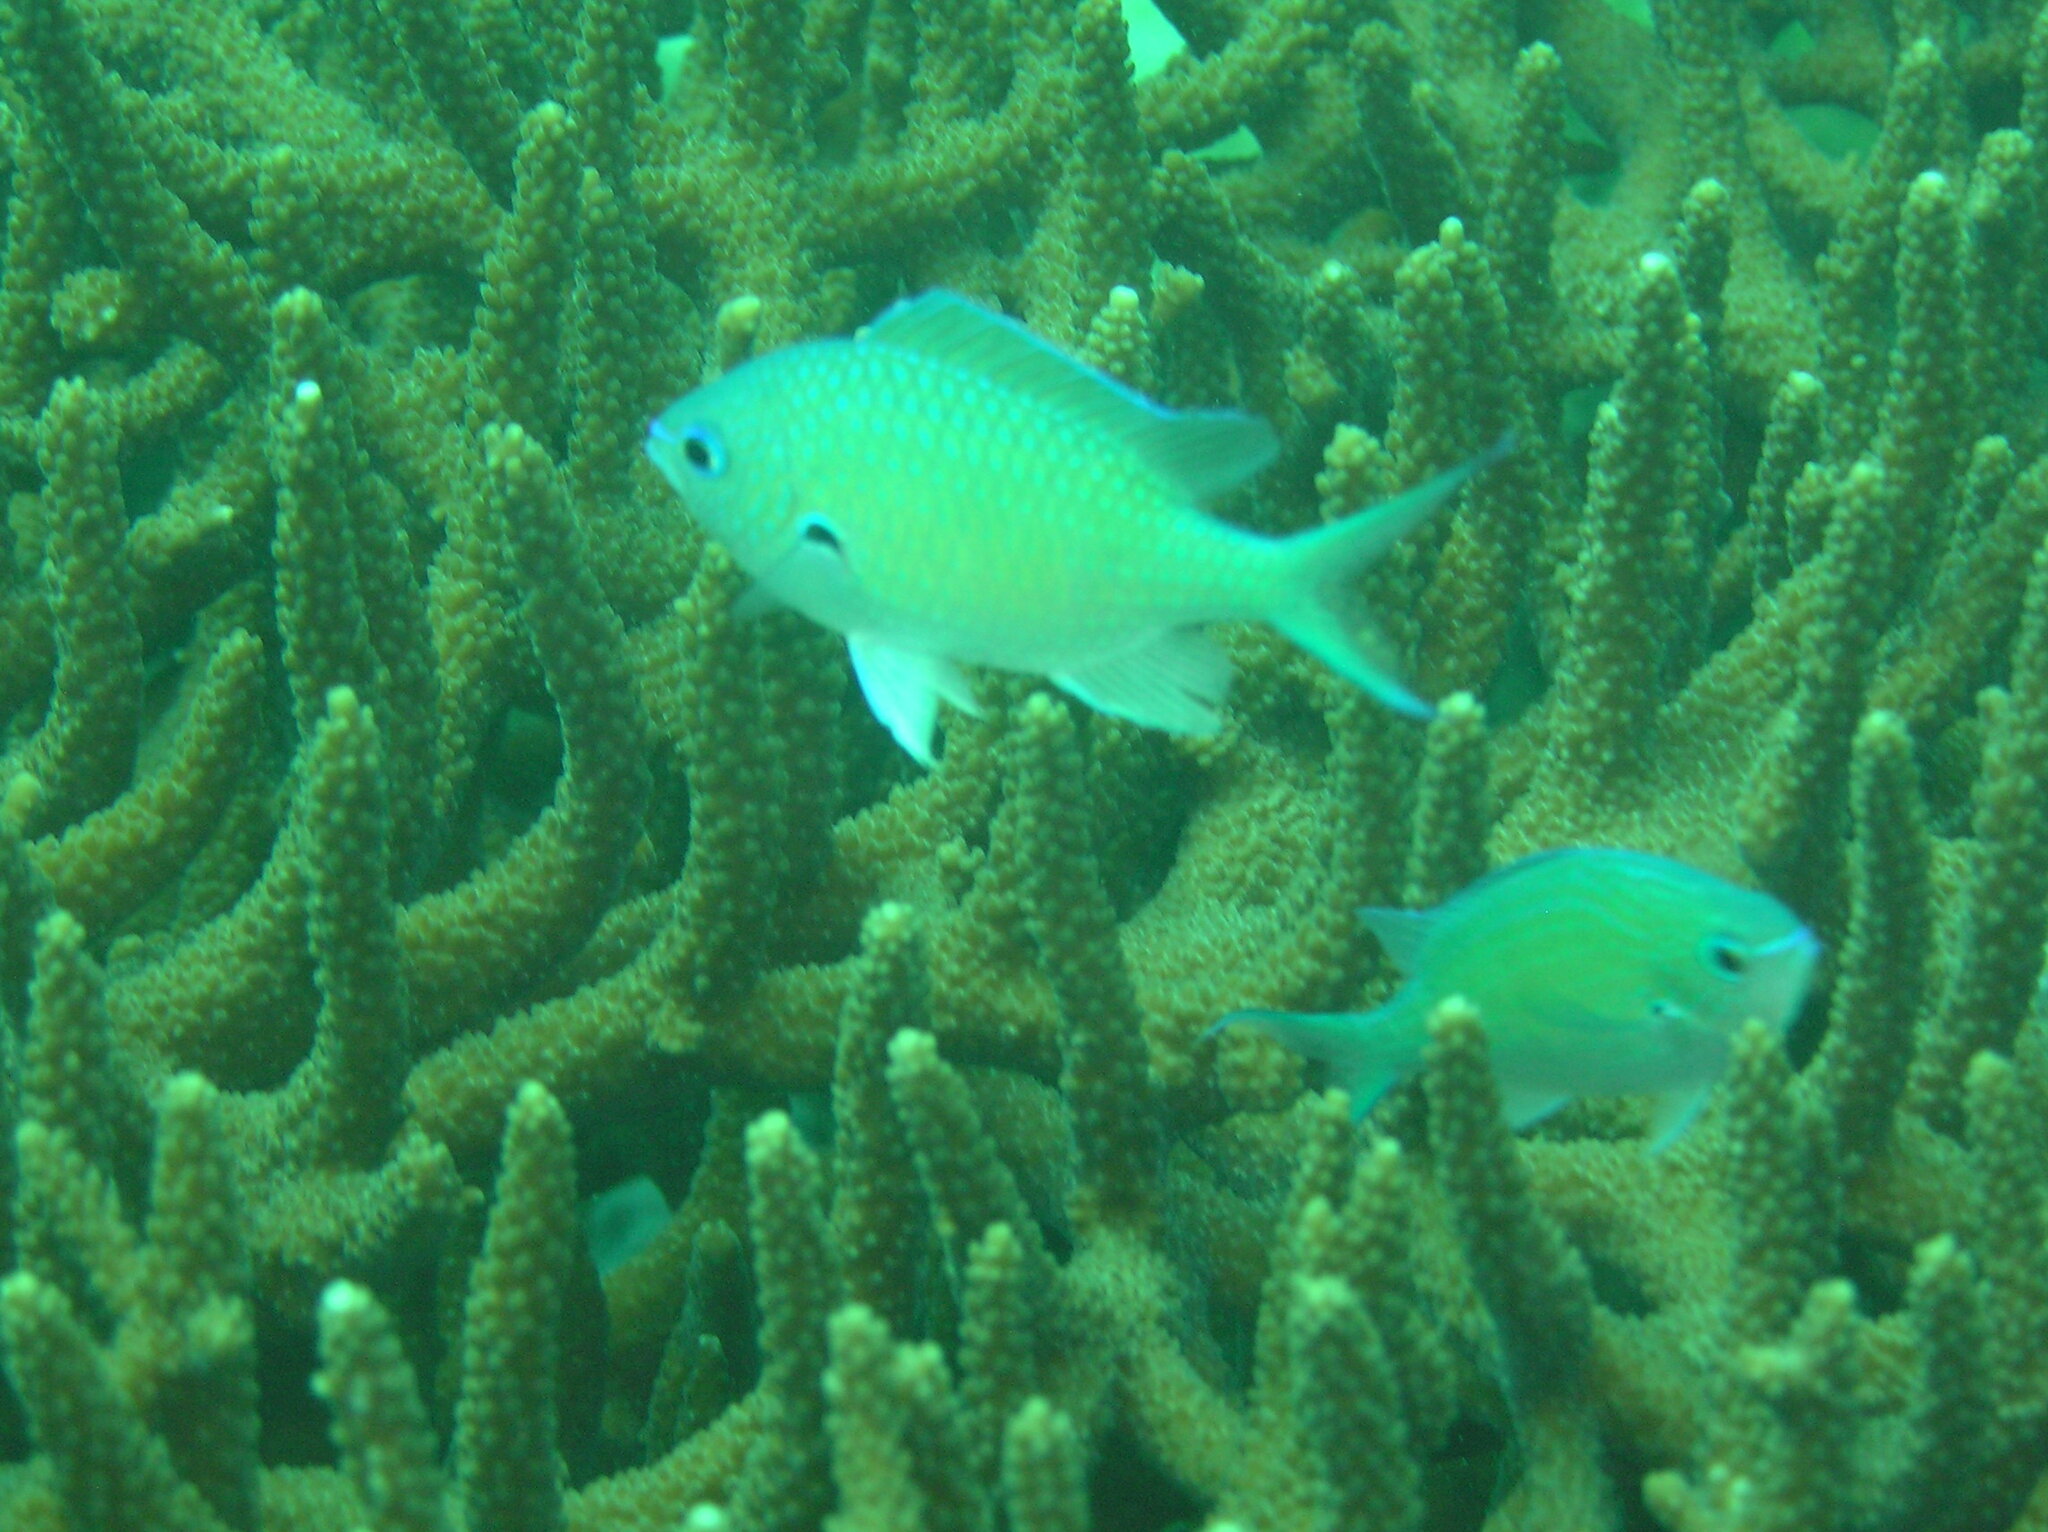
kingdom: Animalia
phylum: Chordata
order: Perciformes
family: Pomacentridae
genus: Chromis
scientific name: Chromis atripectoralis
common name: Black-axil chromis
